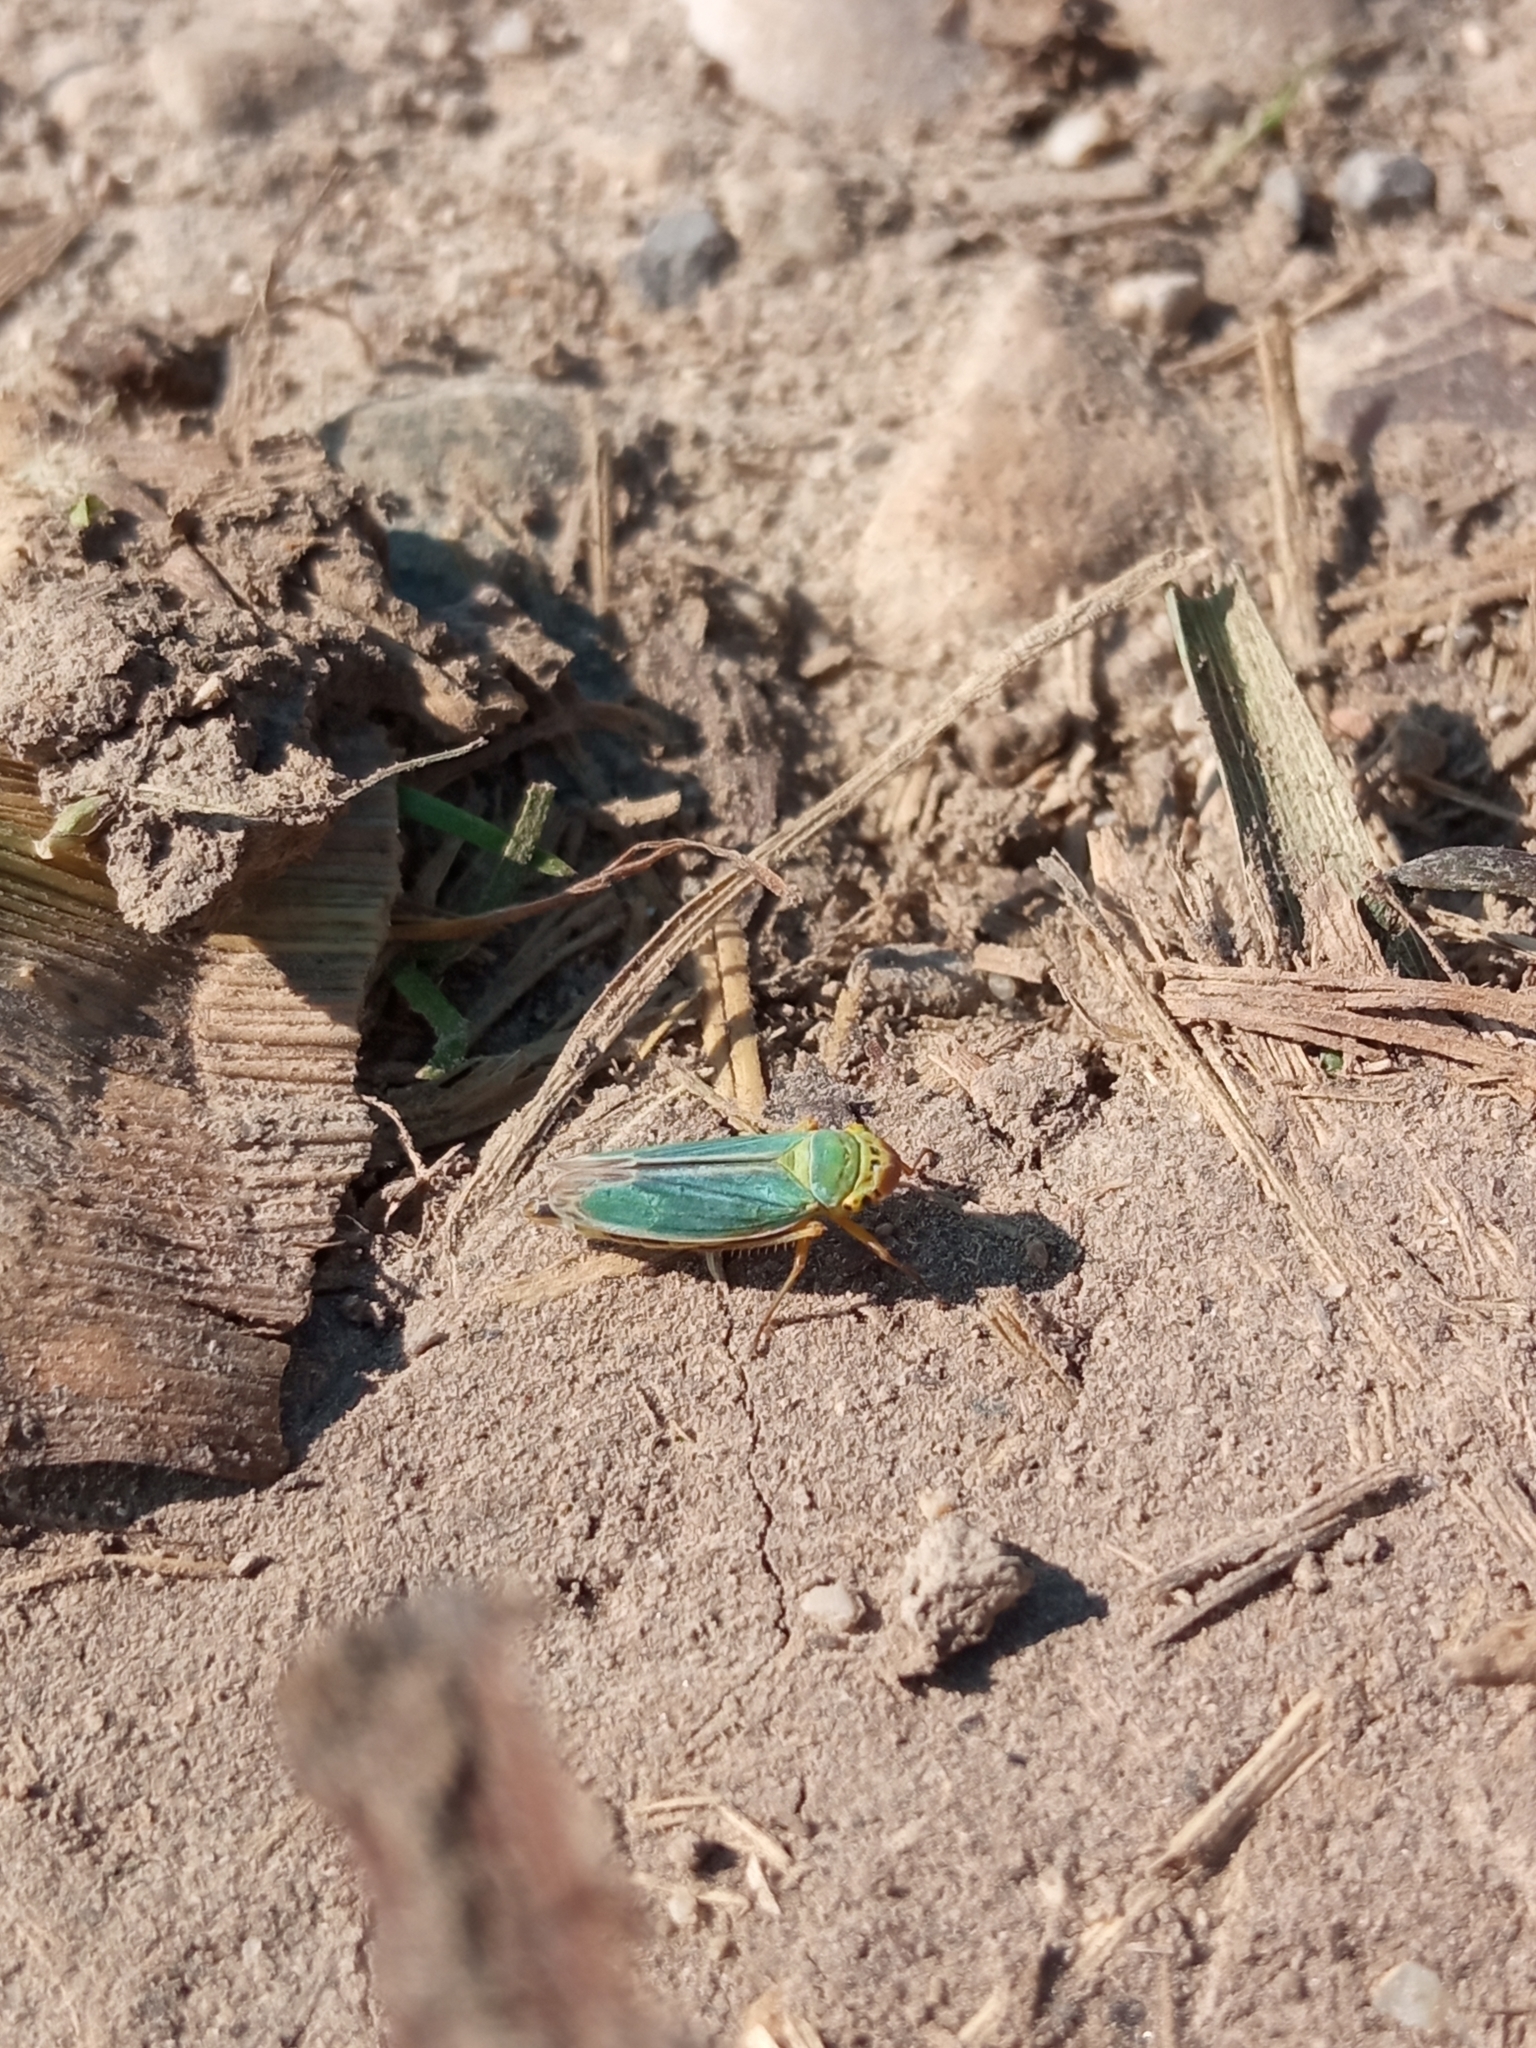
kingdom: Animalia
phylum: Arthropoda
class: Insecta
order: Hemiptera
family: Cicadellidae
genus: Cicadella
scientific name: Cicadella viridis
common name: Leafhopper
